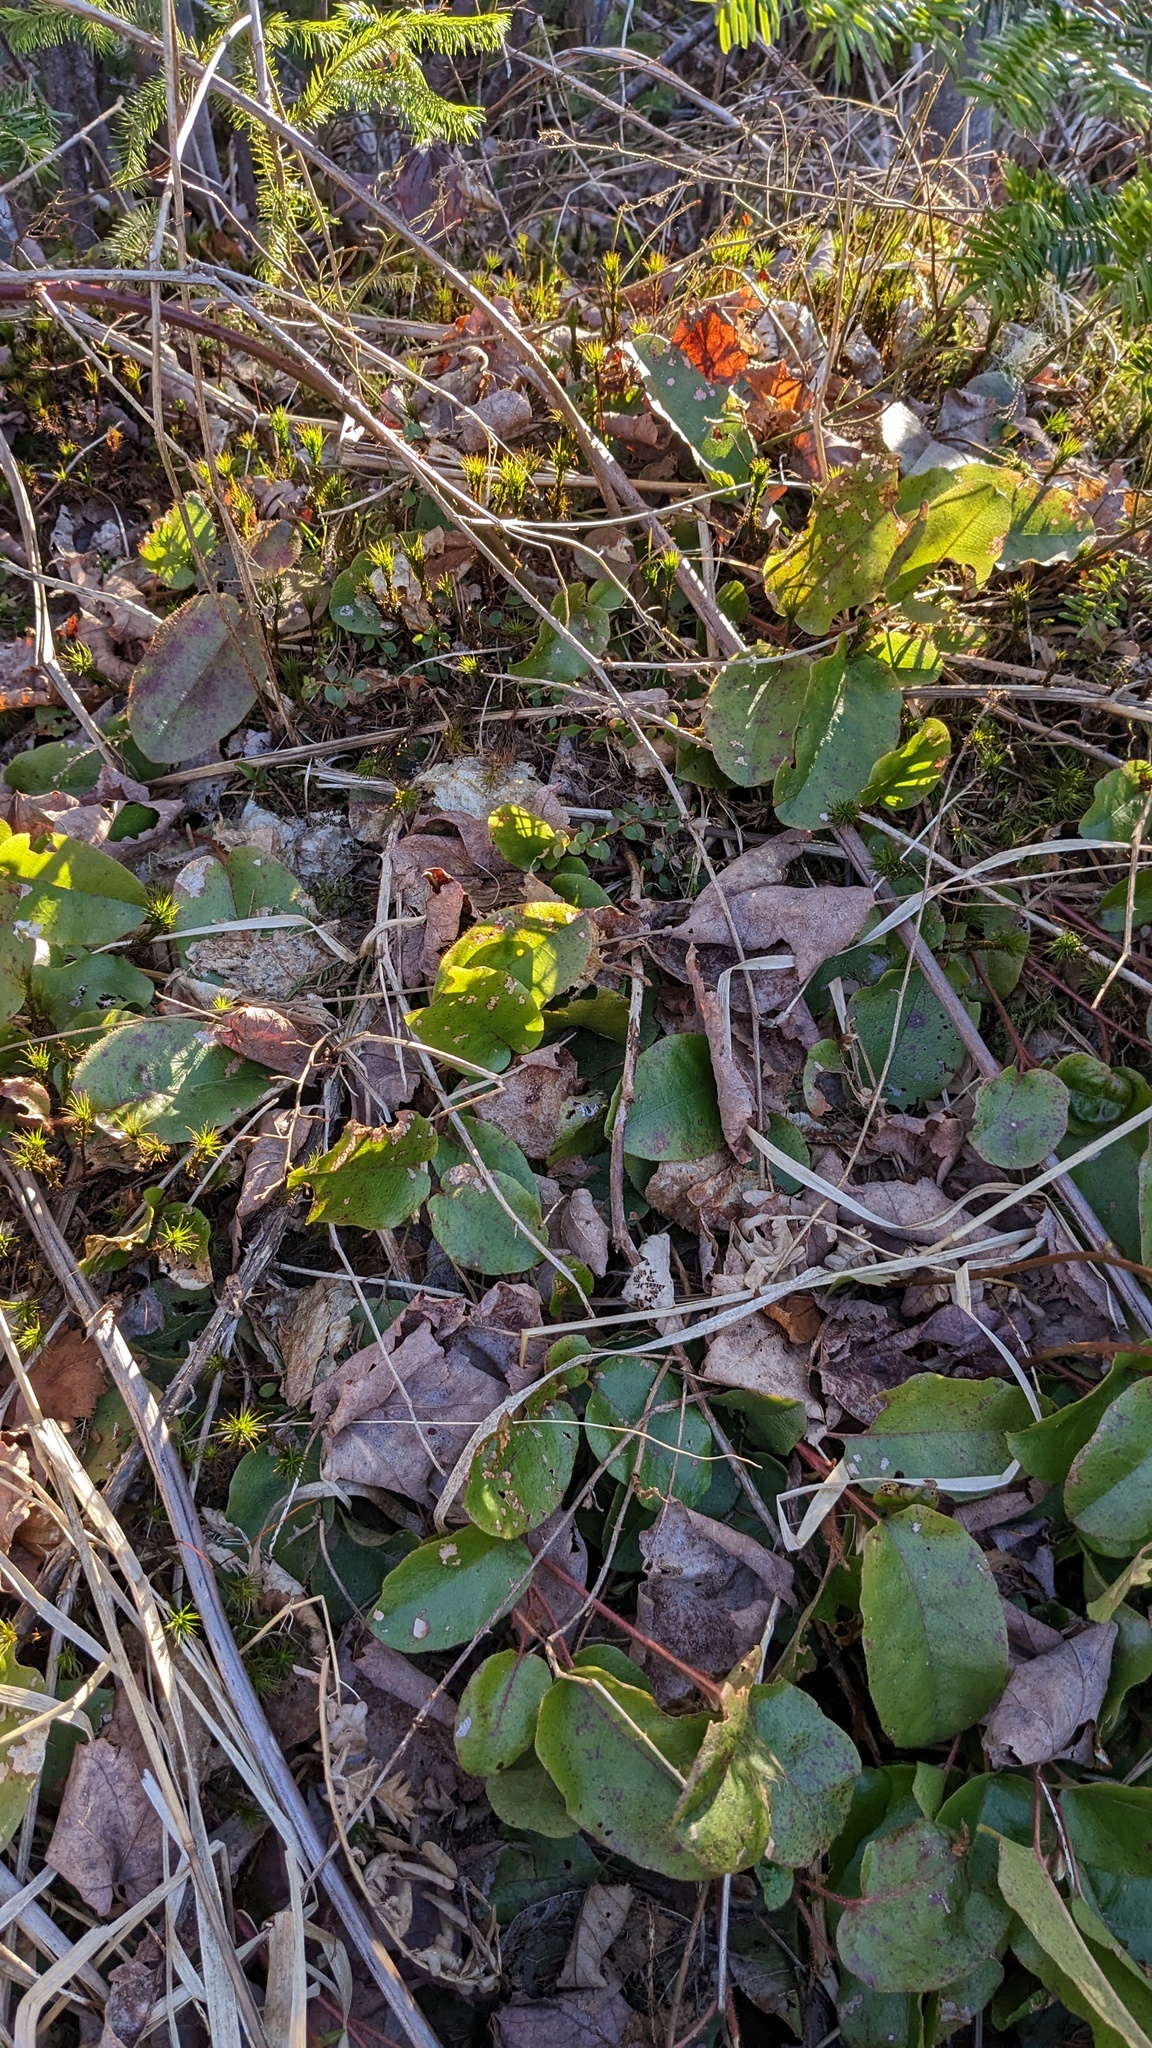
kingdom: Plantae
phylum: Tracheophyta
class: Magnoliopsida
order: Ericales
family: Ericaceae
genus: Epigaea
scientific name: Epigaea repens
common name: Gravelroot
